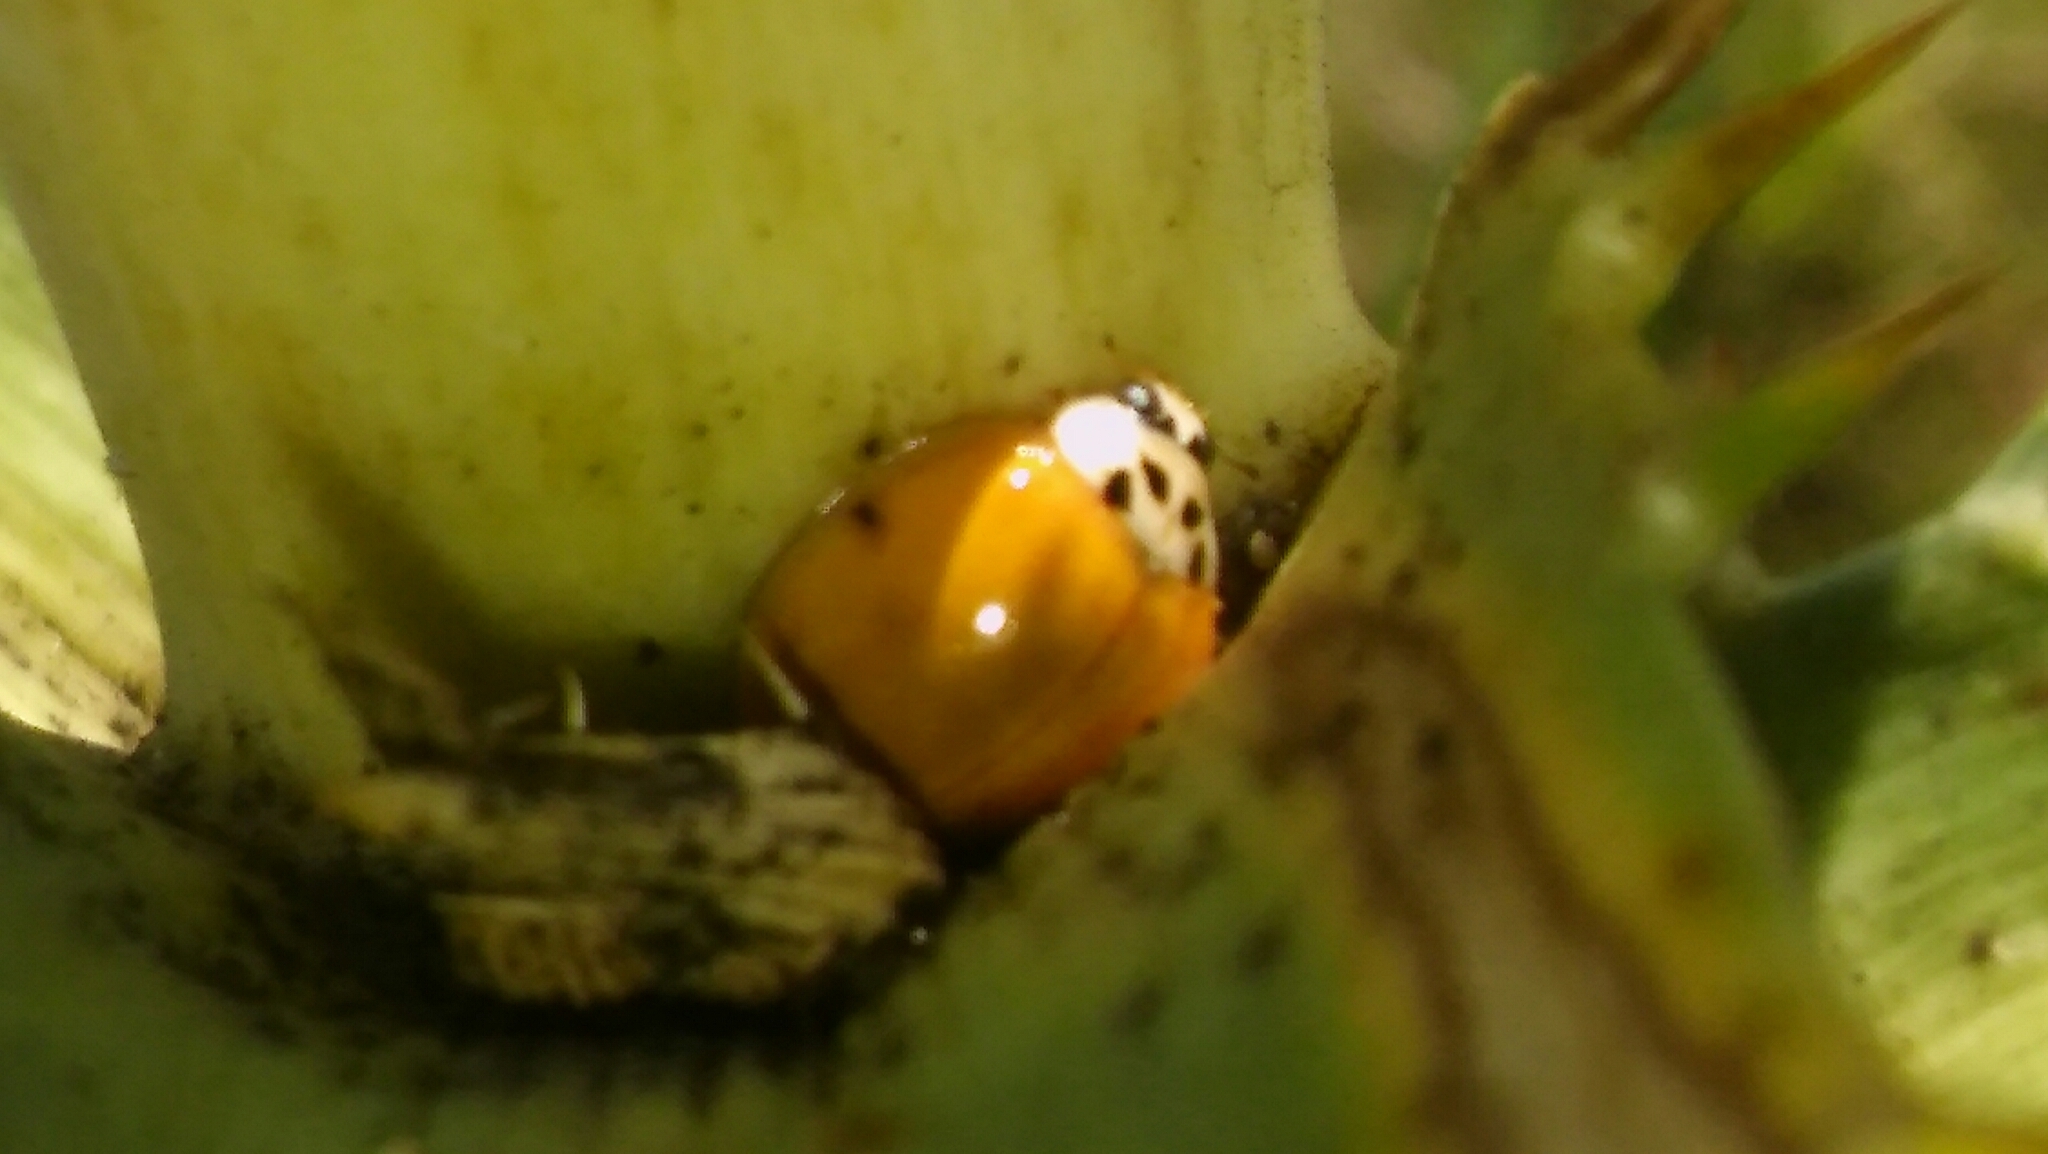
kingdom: Animalia
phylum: Arthropoda
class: Insecta
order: Coleoptera
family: Coccinellidae
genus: Harmonia
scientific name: Harmonia axyridis
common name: Harlequin ladybird
